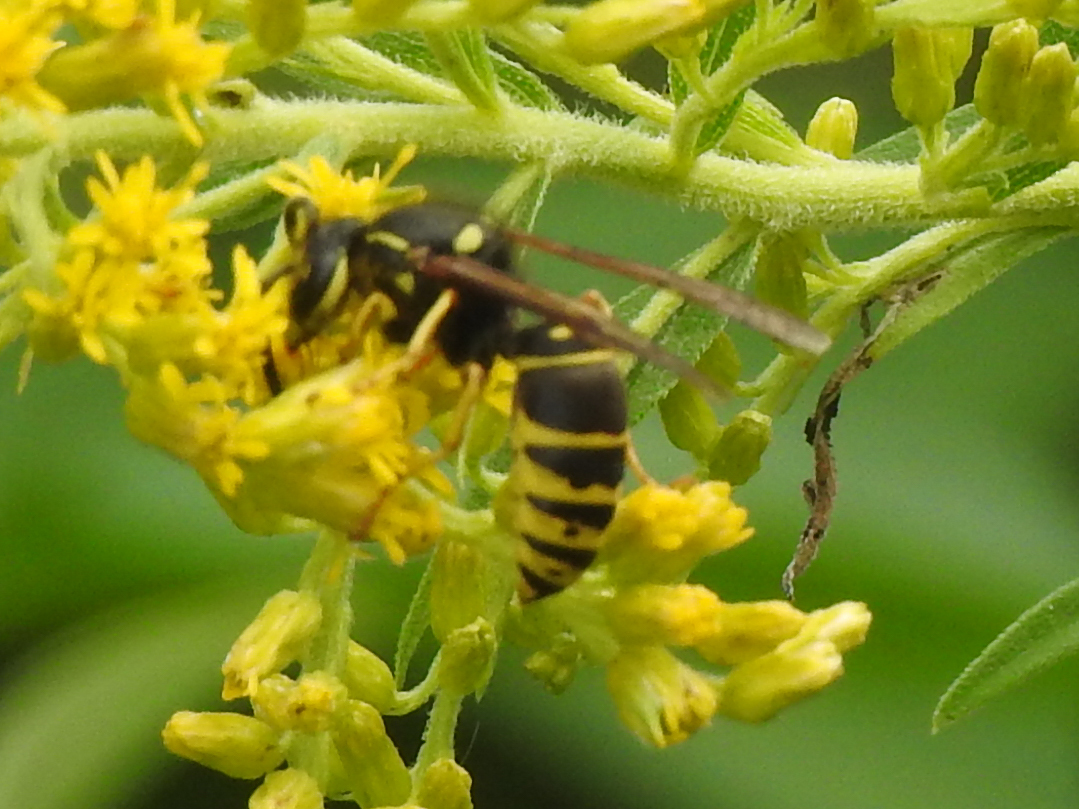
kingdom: Animalia
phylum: Arthropoda
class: Insecta
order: Hymenoptera
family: Vespidae
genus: Vespula
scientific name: Vespula vidua
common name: Widow yellowjacket
